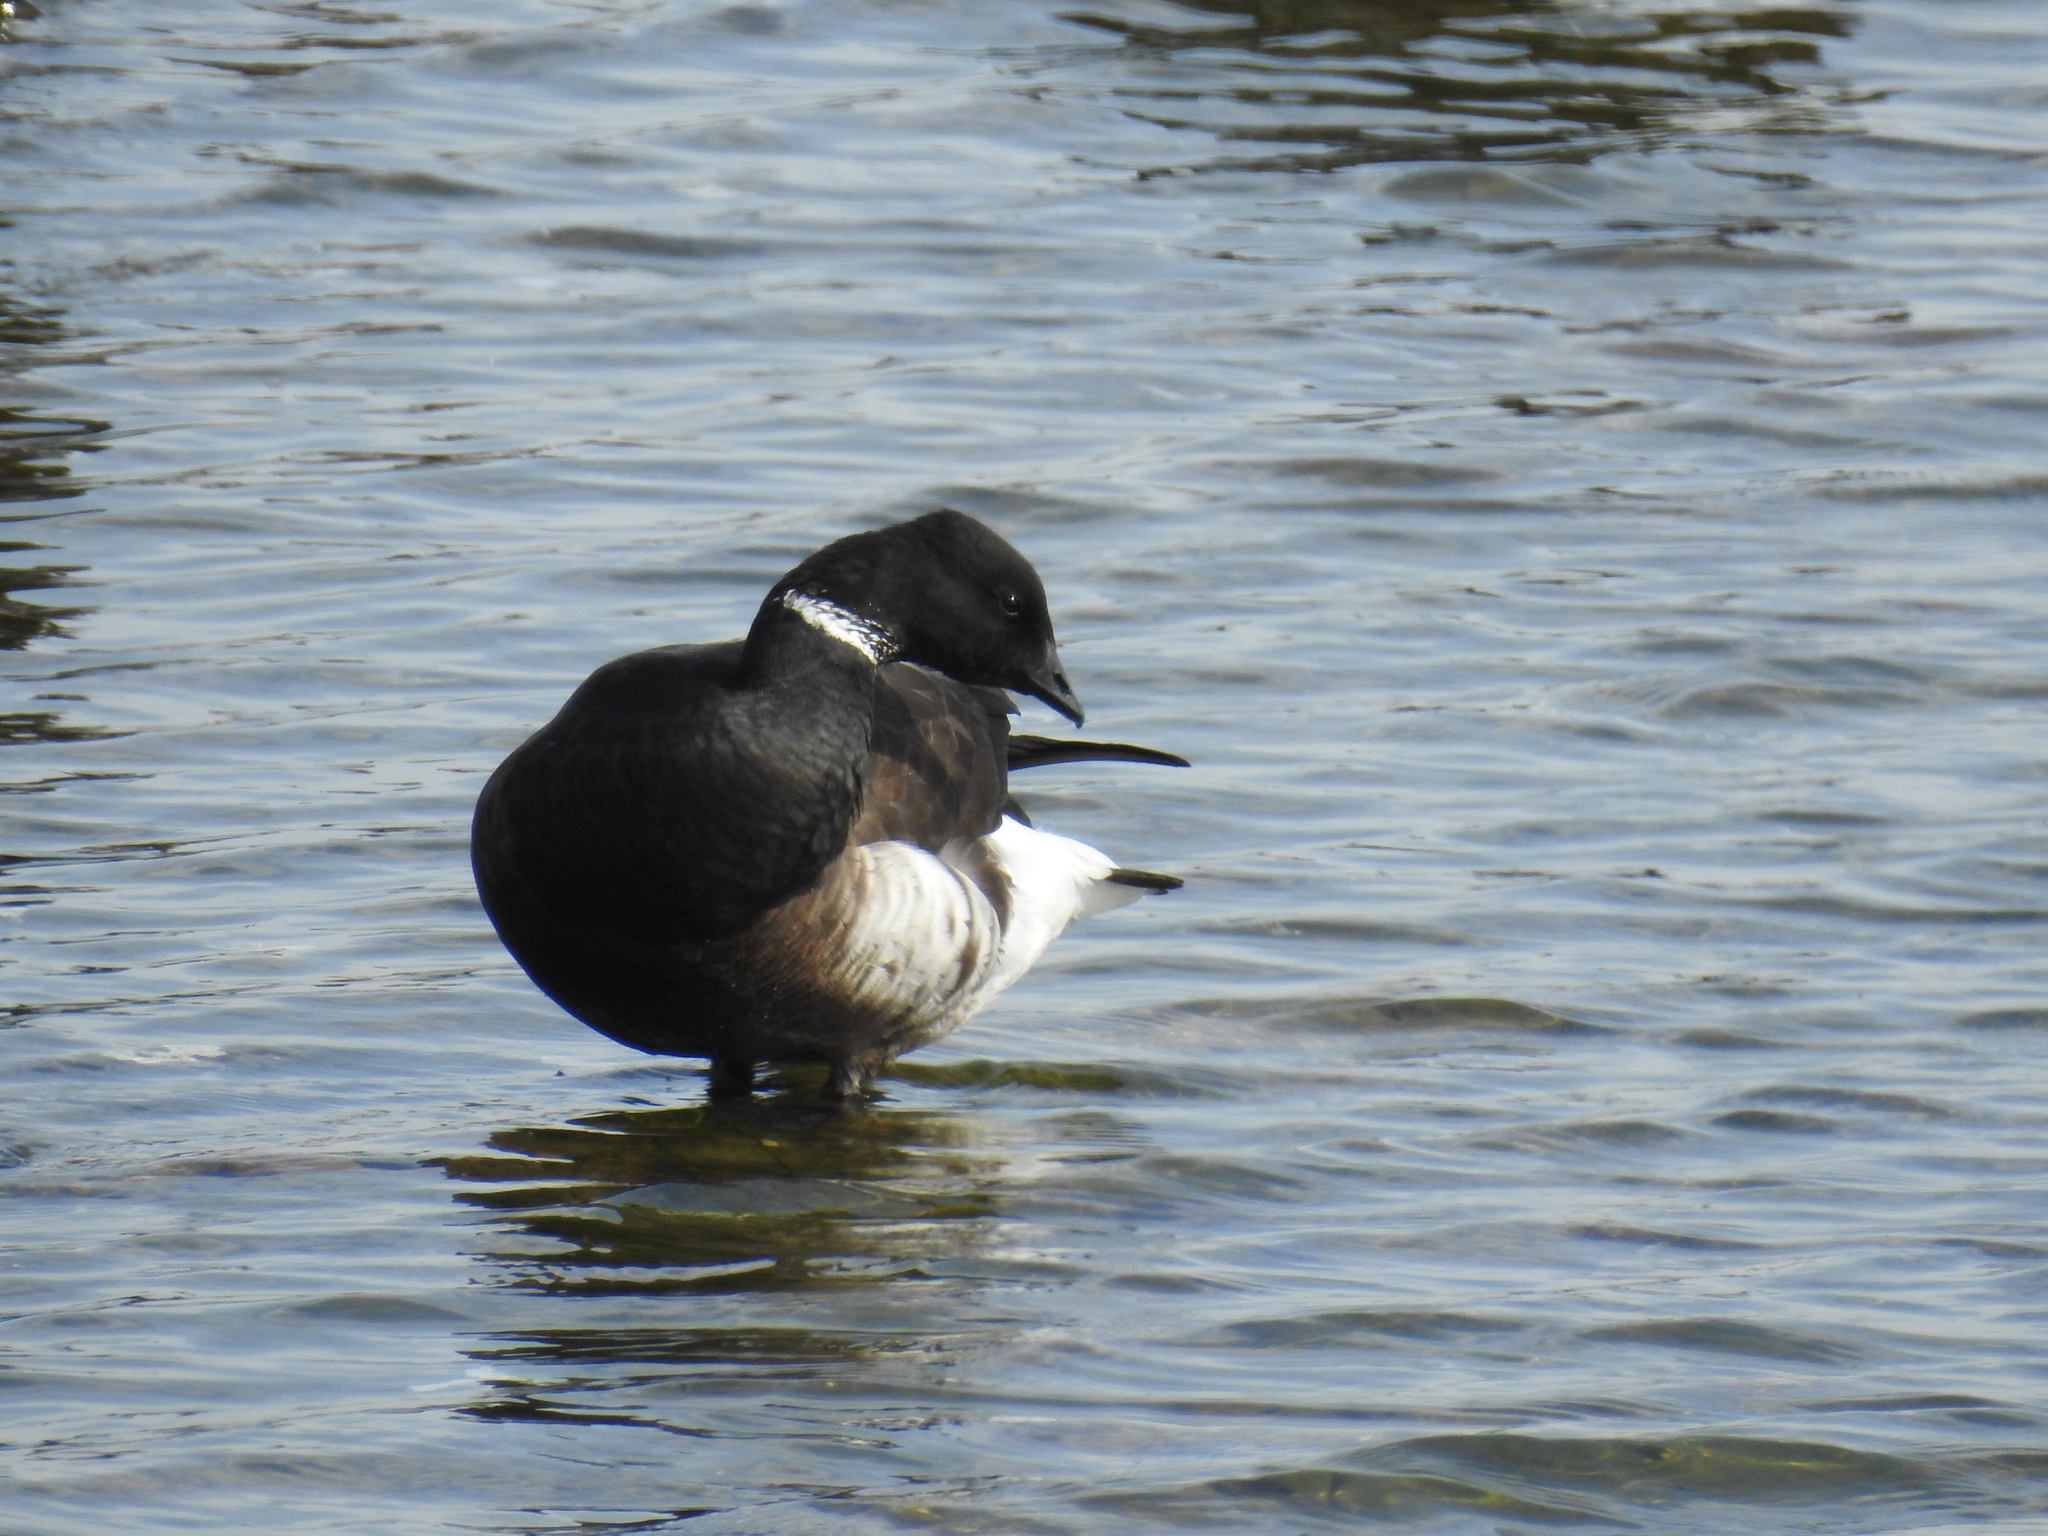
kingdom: Animalia
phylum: Chordata
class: Aves
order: Anseriformes
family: Anatidae
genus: Branta
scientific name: Branta bernicla
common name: Brant goose
